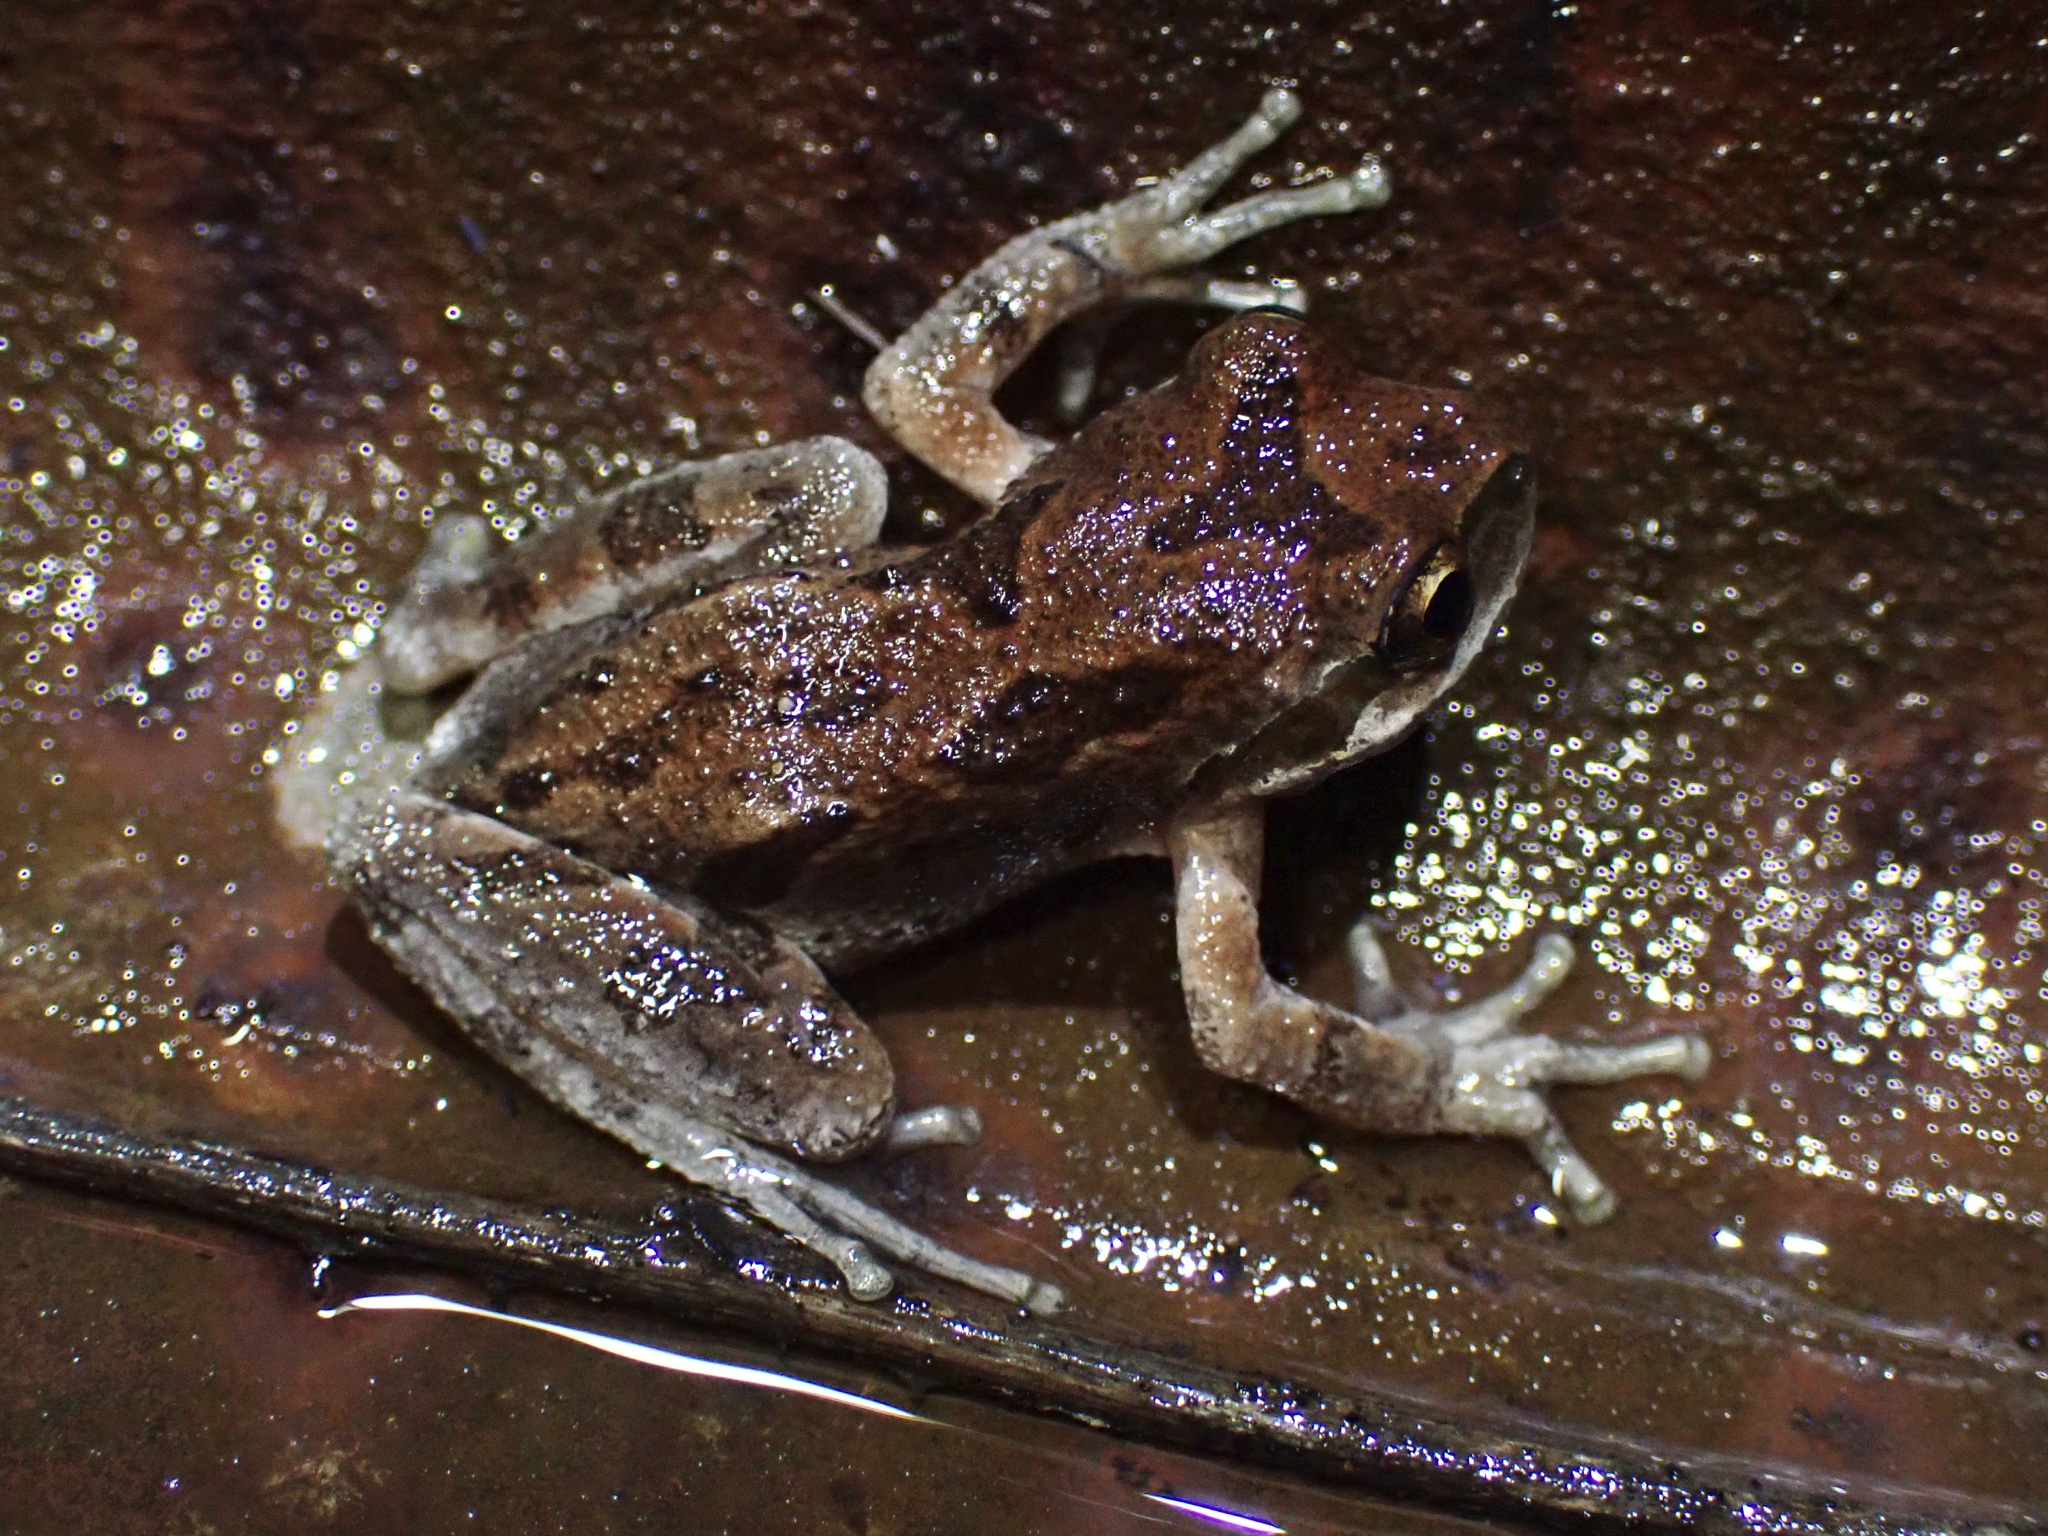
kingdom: Animalia
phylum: Chordata
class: Amphibia
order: Anura
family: Hylidae
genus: Pseudacris
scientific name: Pseudacris regilla
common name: Pacific chorus frog
